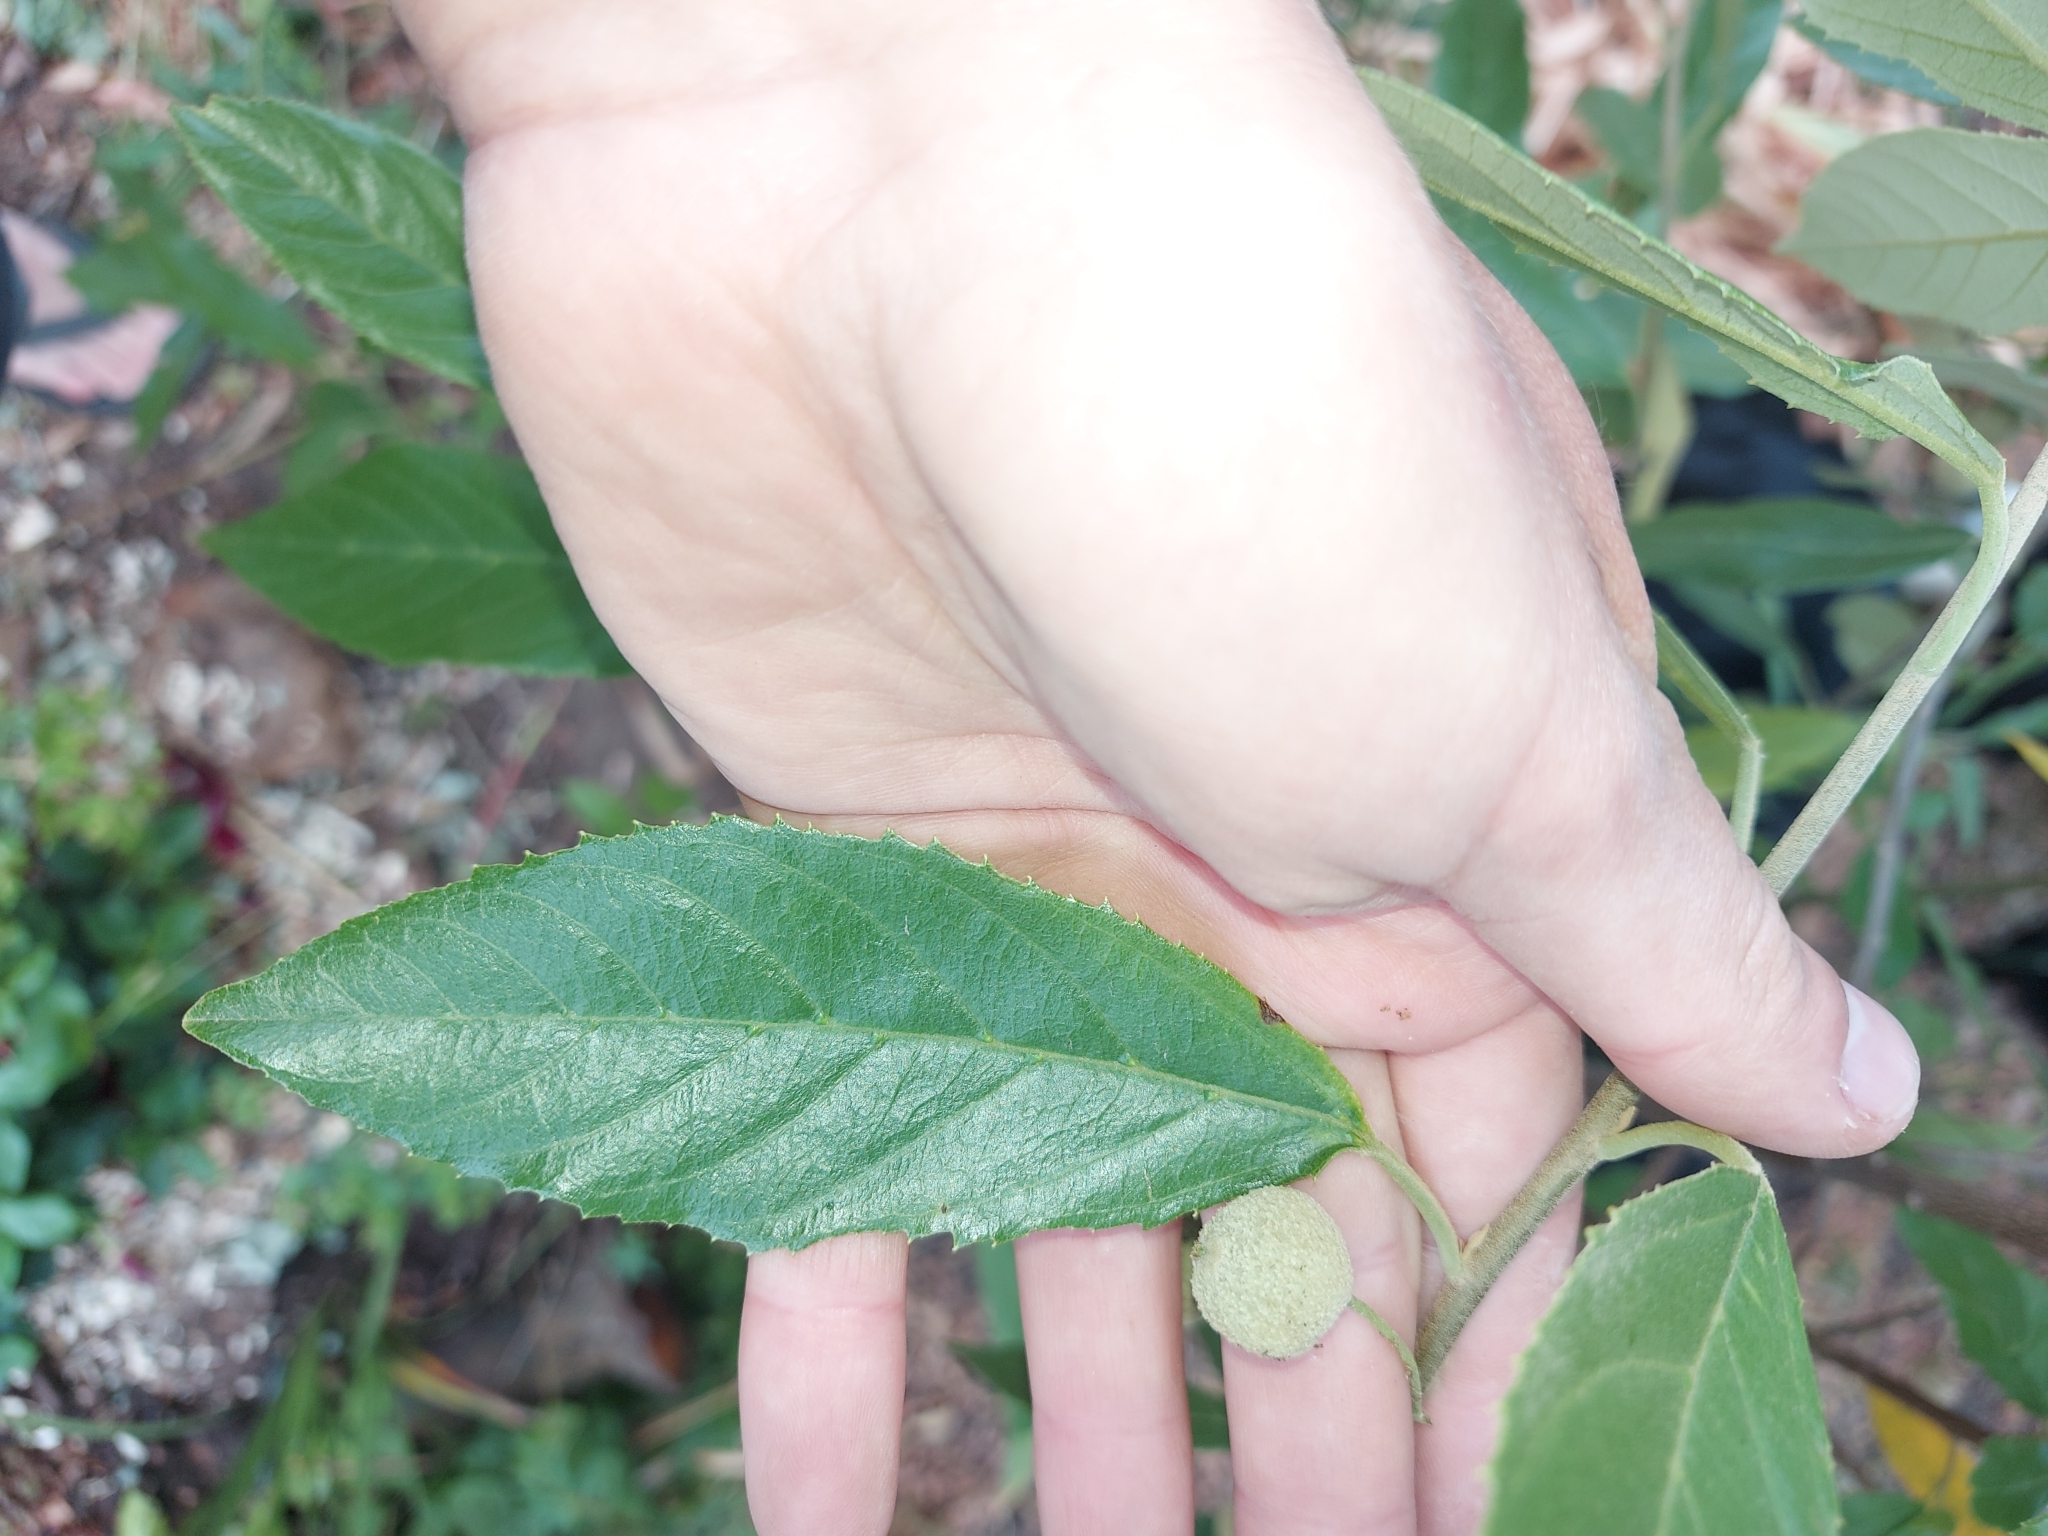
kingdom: Plantae
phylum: Tracheophyta
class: Magnoliopsida
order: Malpighiales
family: Achariaceae
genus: Kiggelaria
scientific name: Kiggelaria africana
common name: Wild peach
